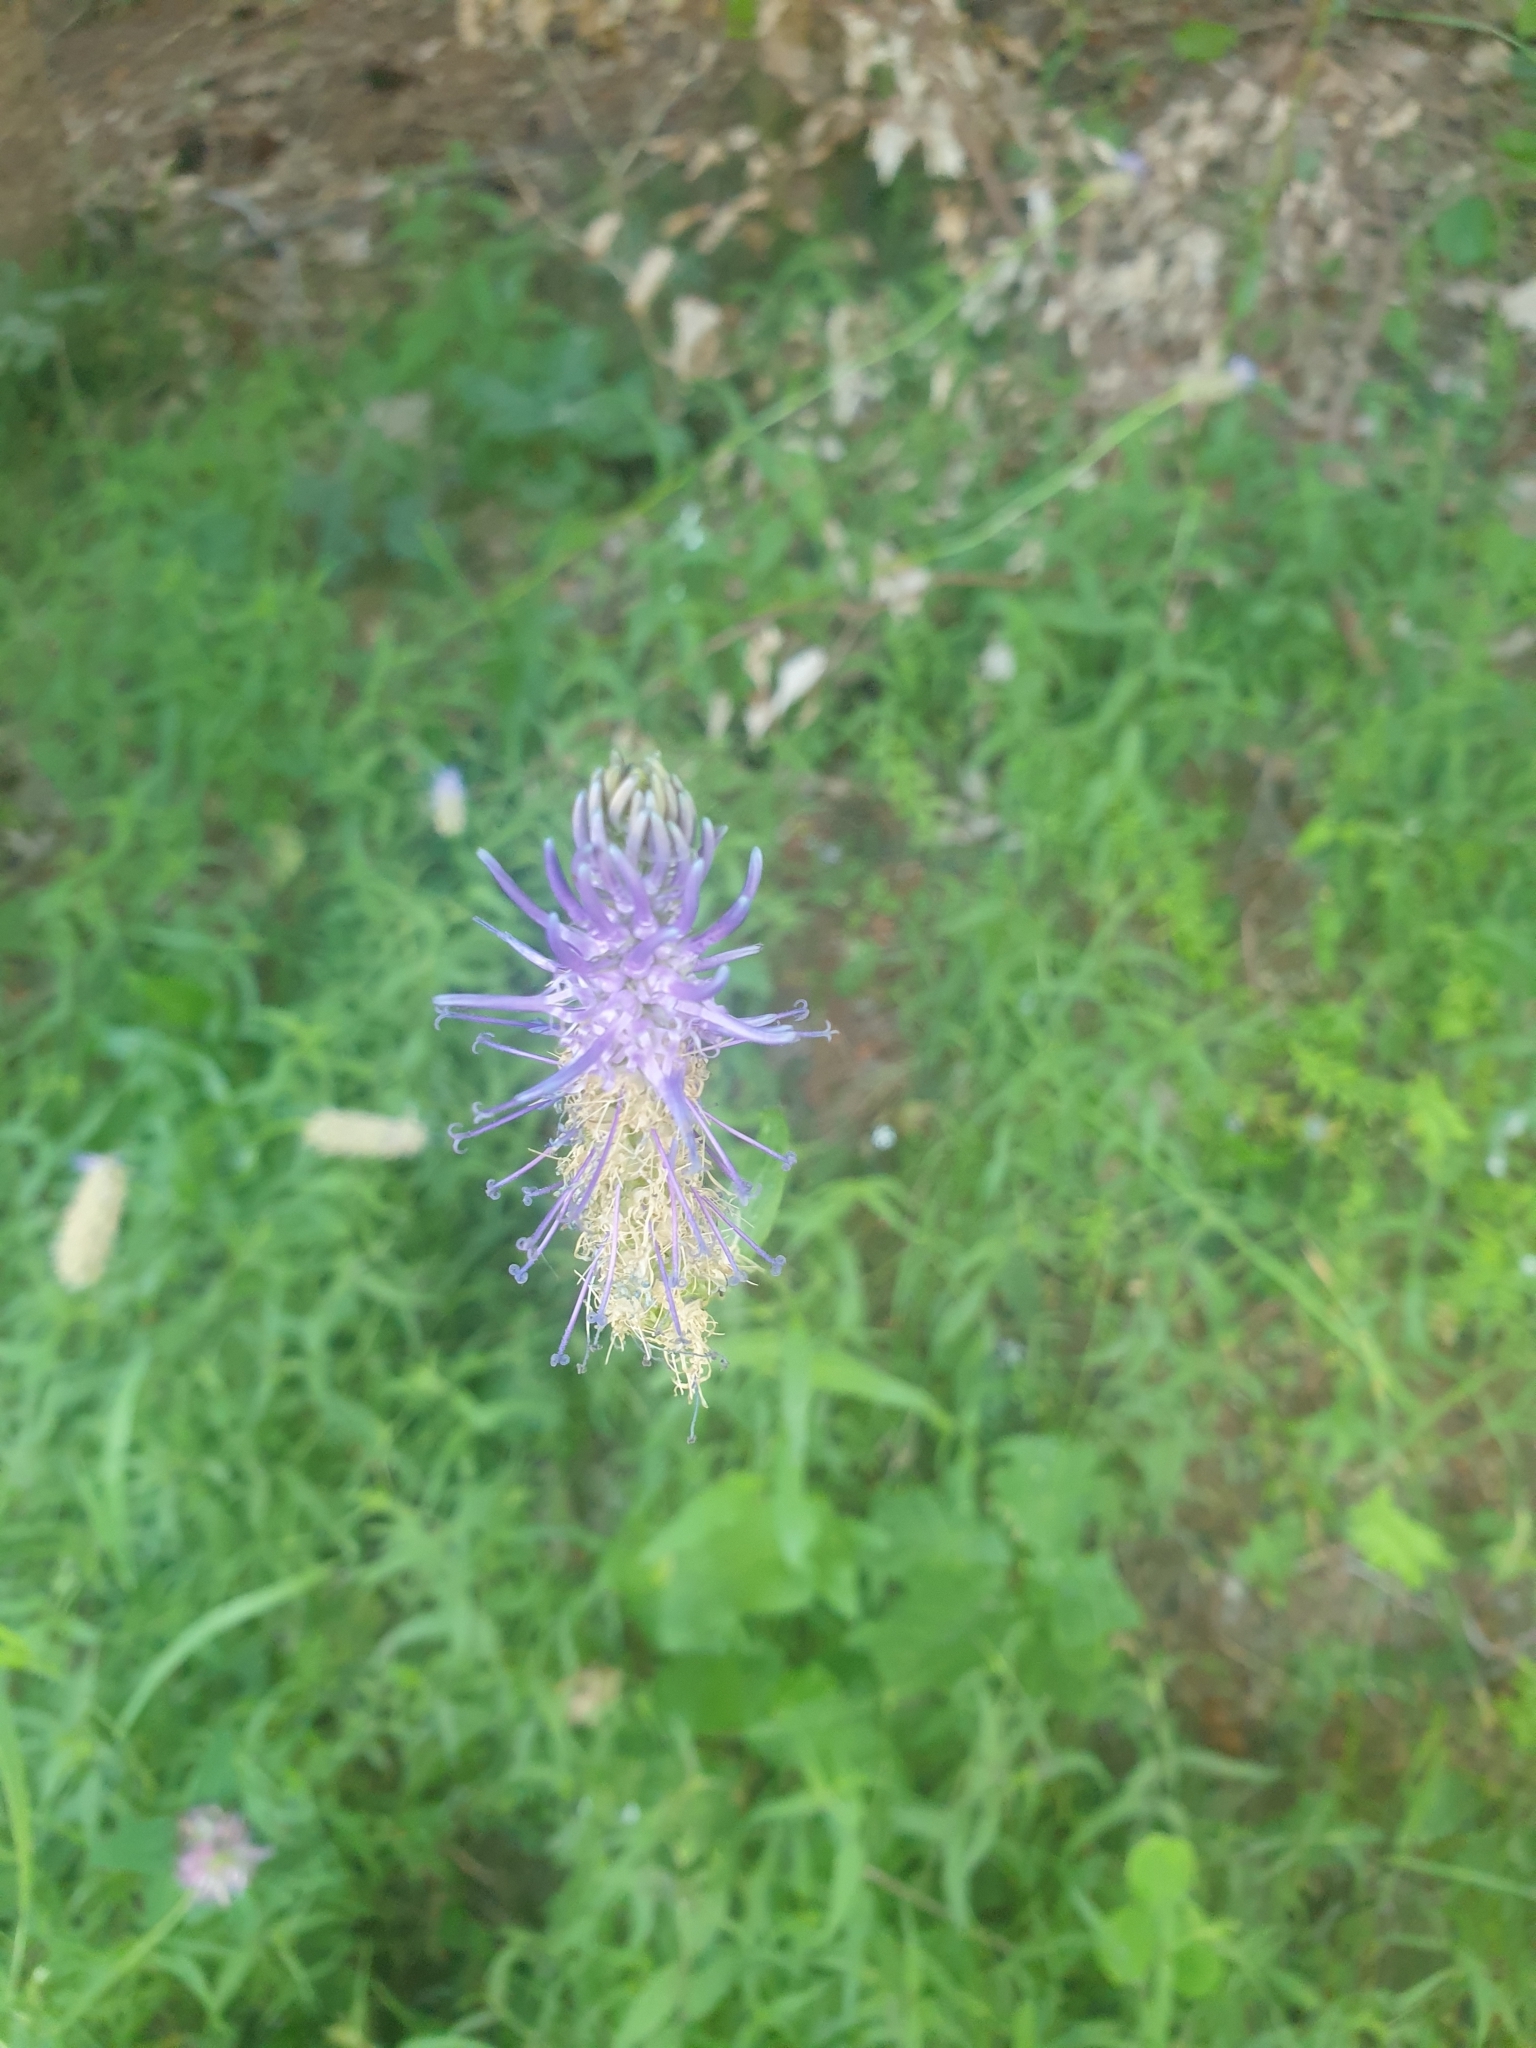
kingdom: Plantae
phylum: Tracheophyta
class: Magnoliopsida
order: Asterales
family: Campanulaceae
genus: Phyteuma
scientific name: Phyteuma betonicifolium
